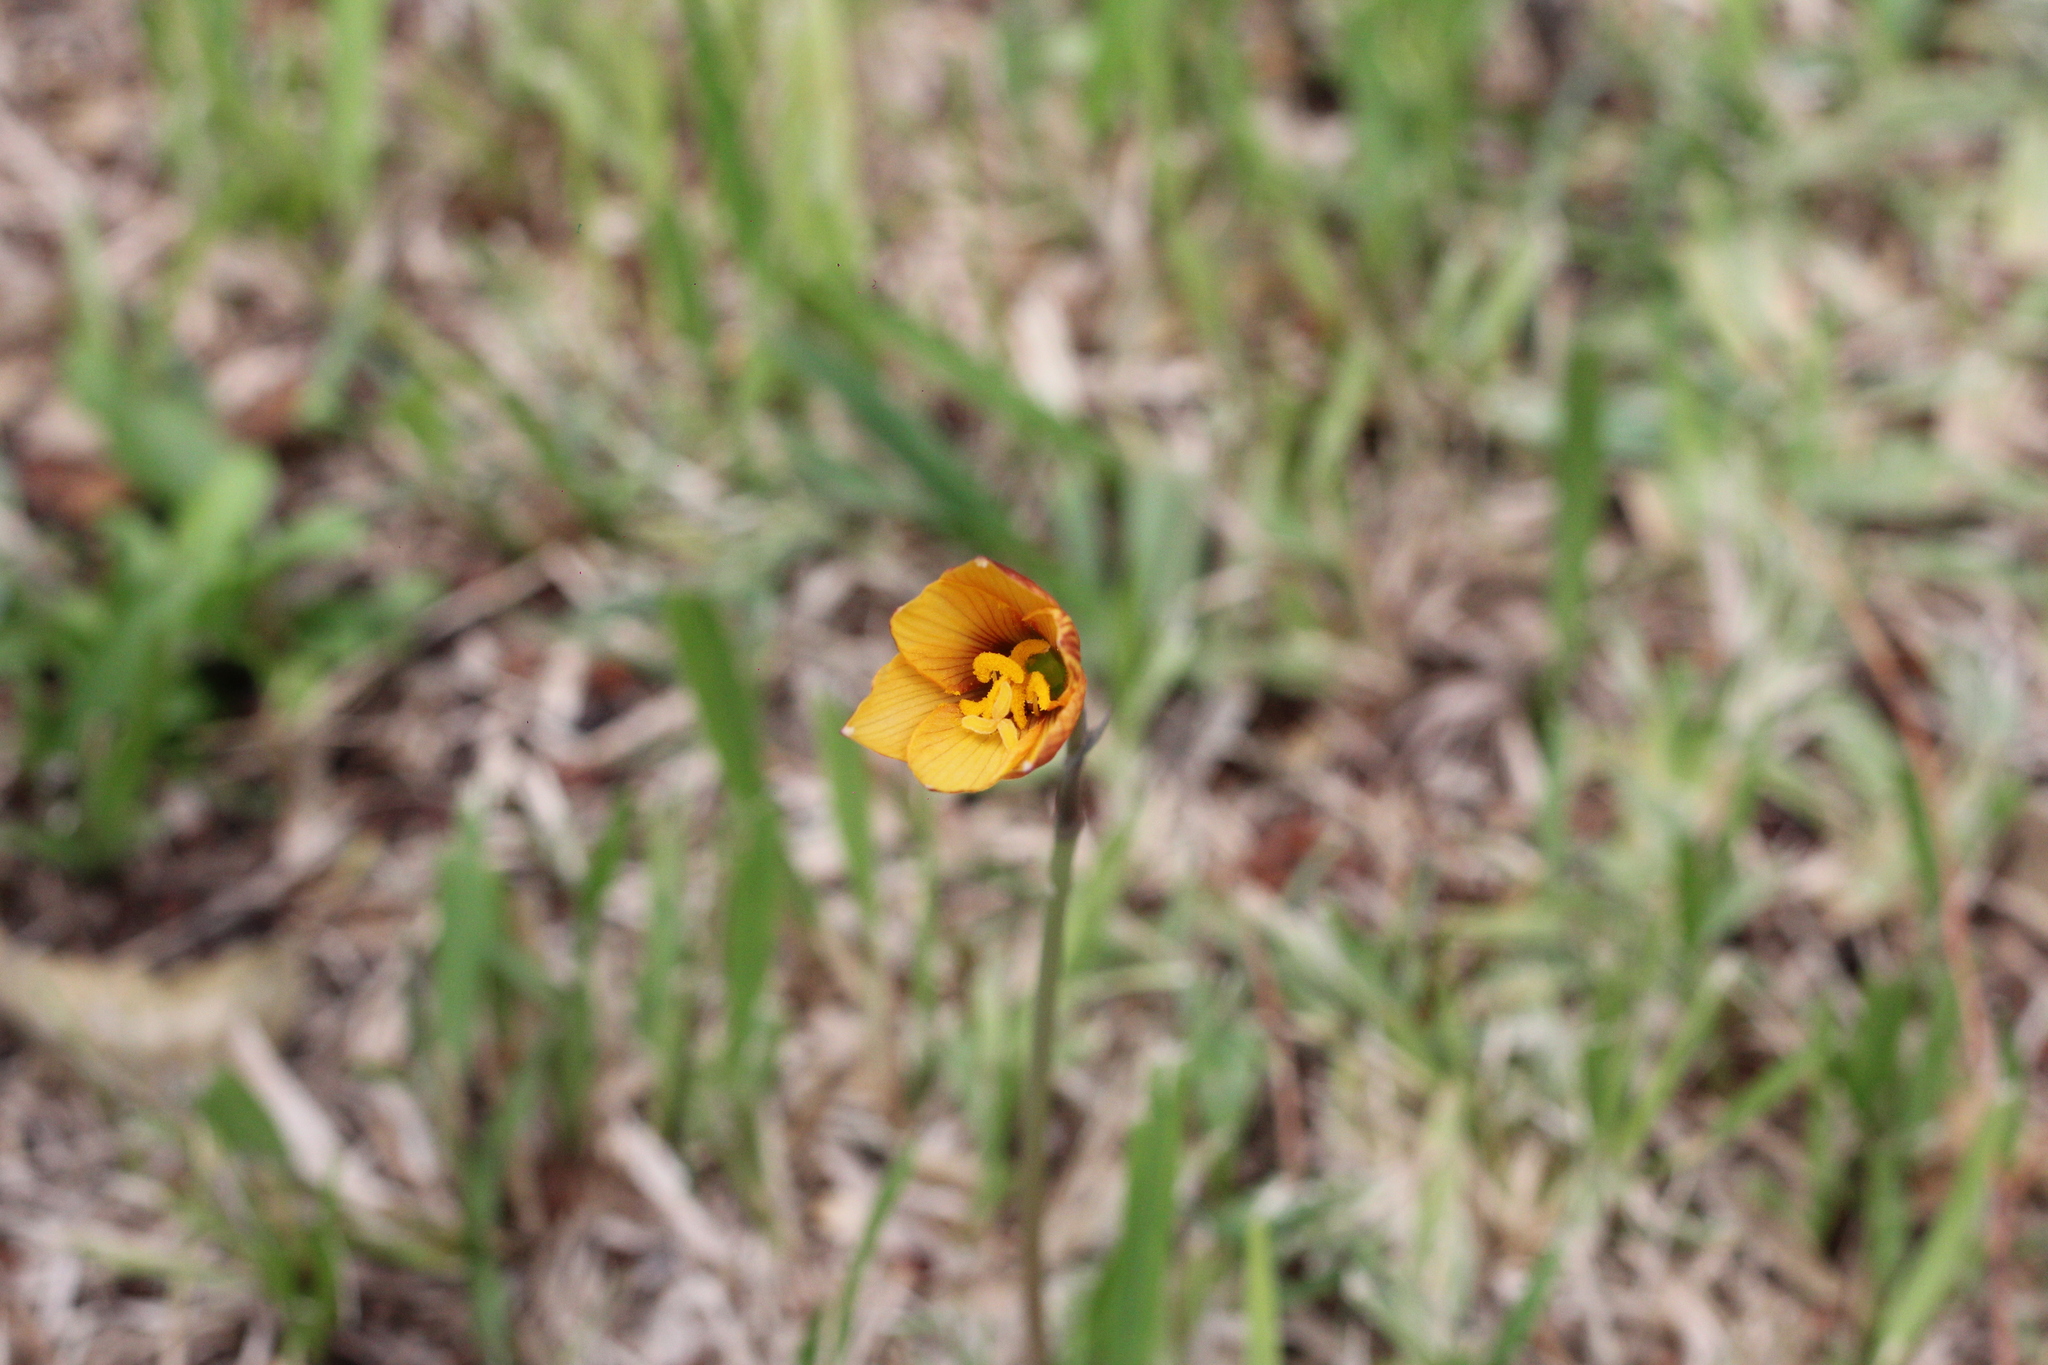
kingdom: Plantae
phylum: Tracheophyta
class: Liliopsida
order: Asparagales
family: Amaryllidaceae
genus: Zephyranthes
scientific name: Zephyranthes tubispatha
